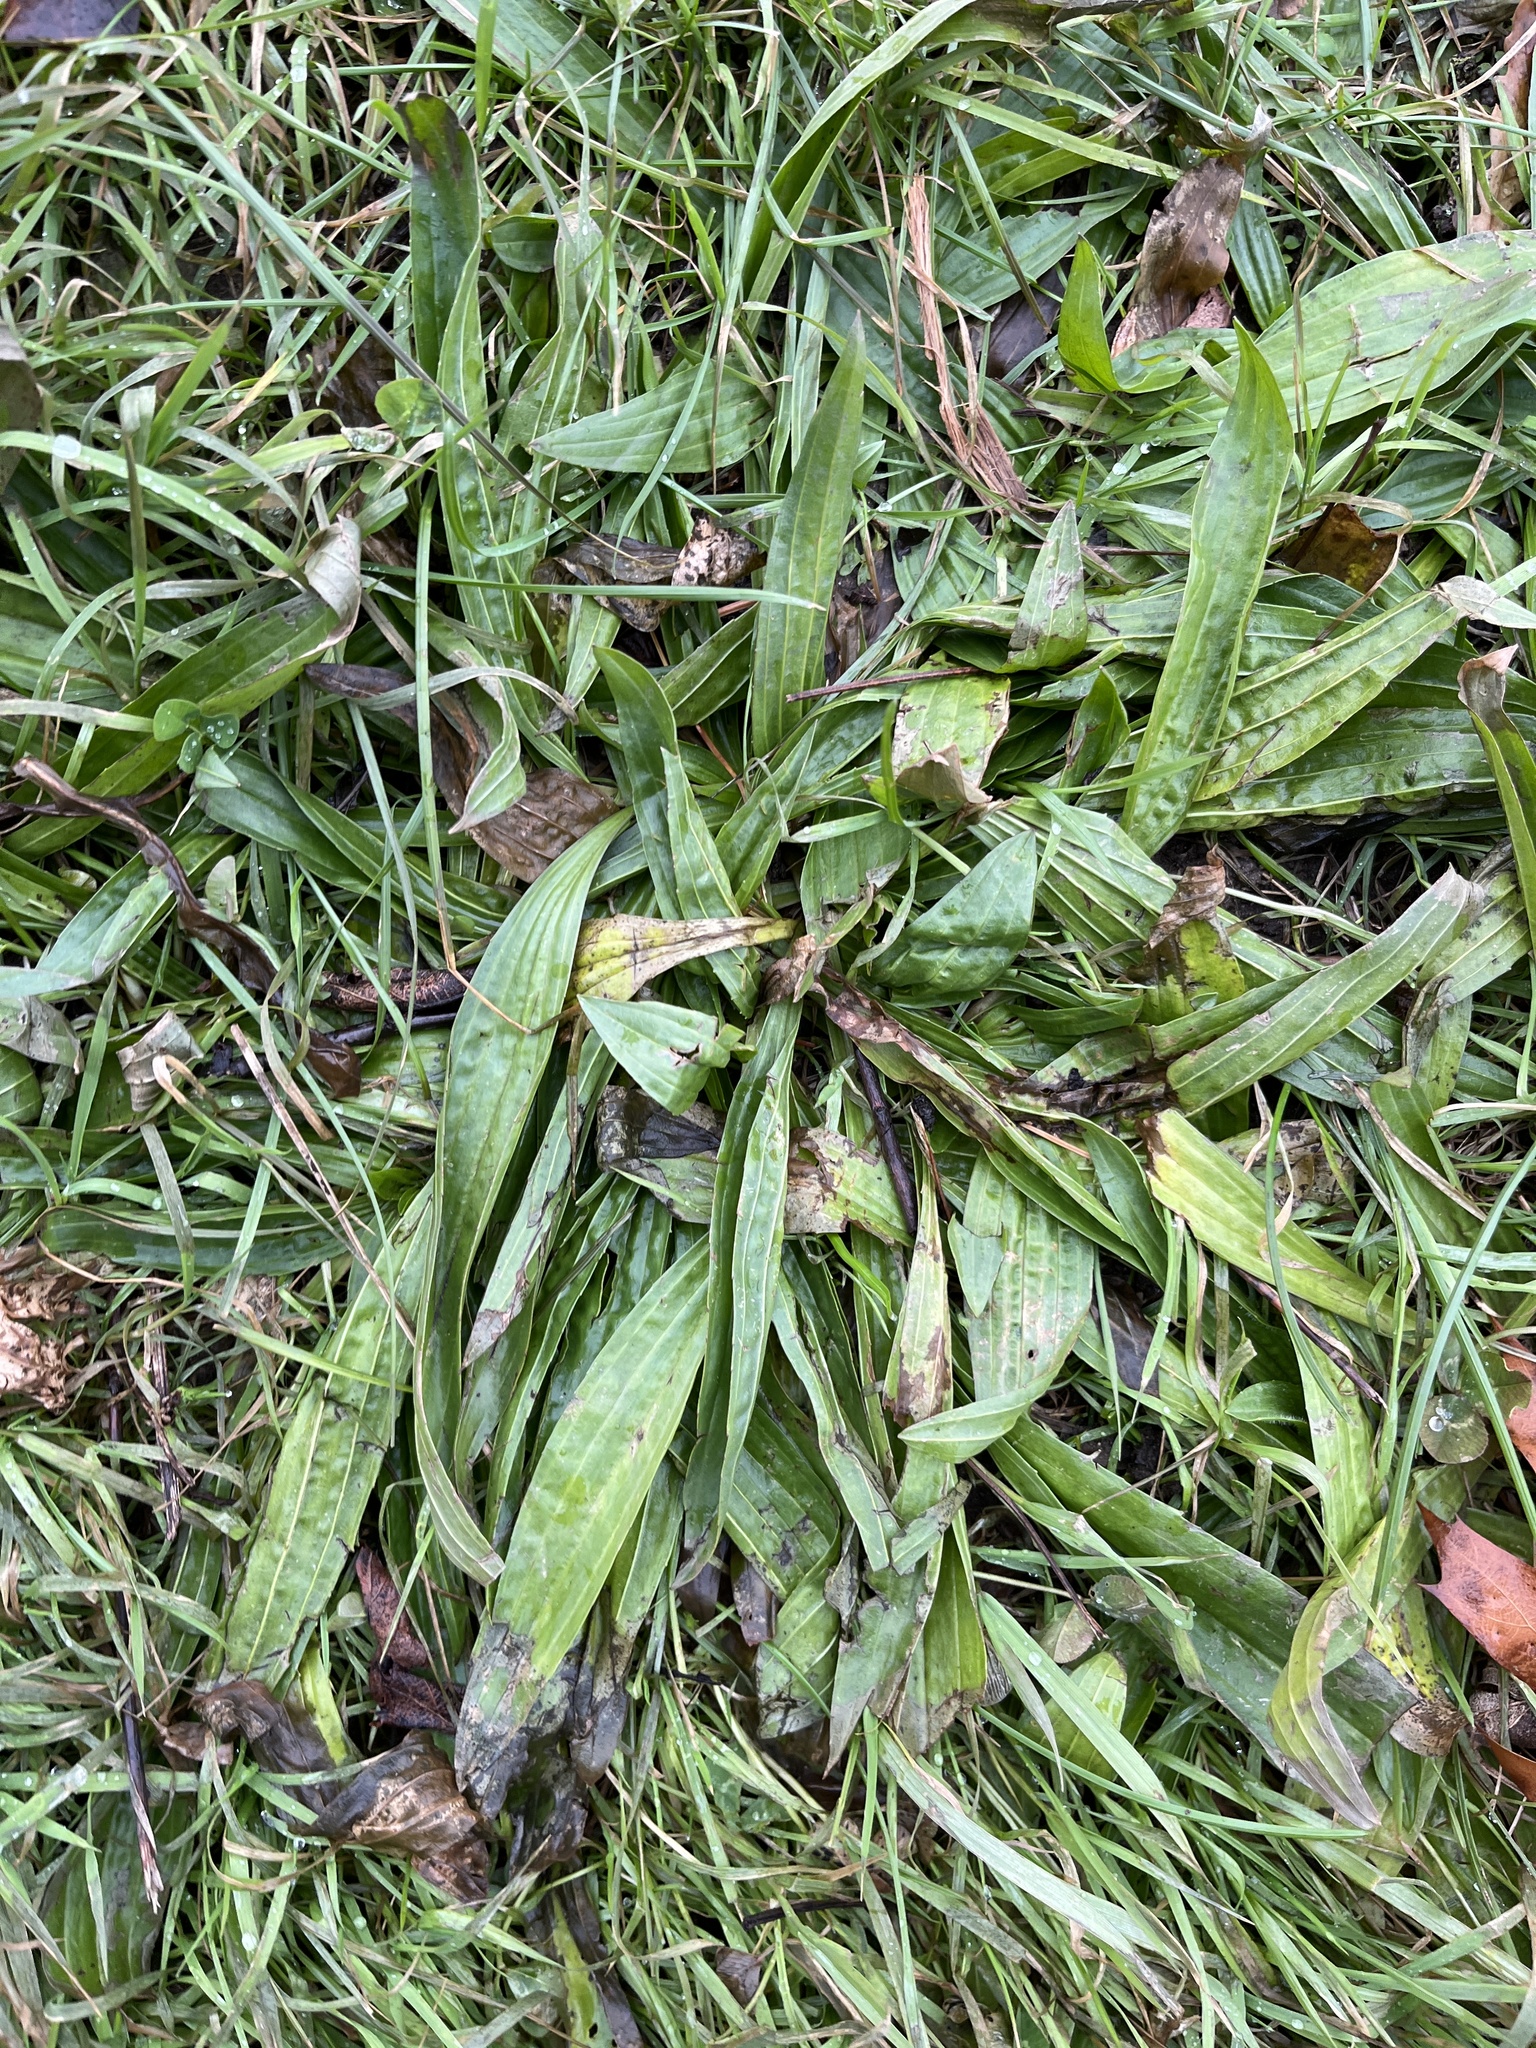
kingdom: Plantae
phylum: Tracheophyta
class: Magnoliopsida
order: Lamiales
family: Plantaginaceae
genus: Plantago
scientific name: Plantago lanceolata
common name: Ribwort plantain
